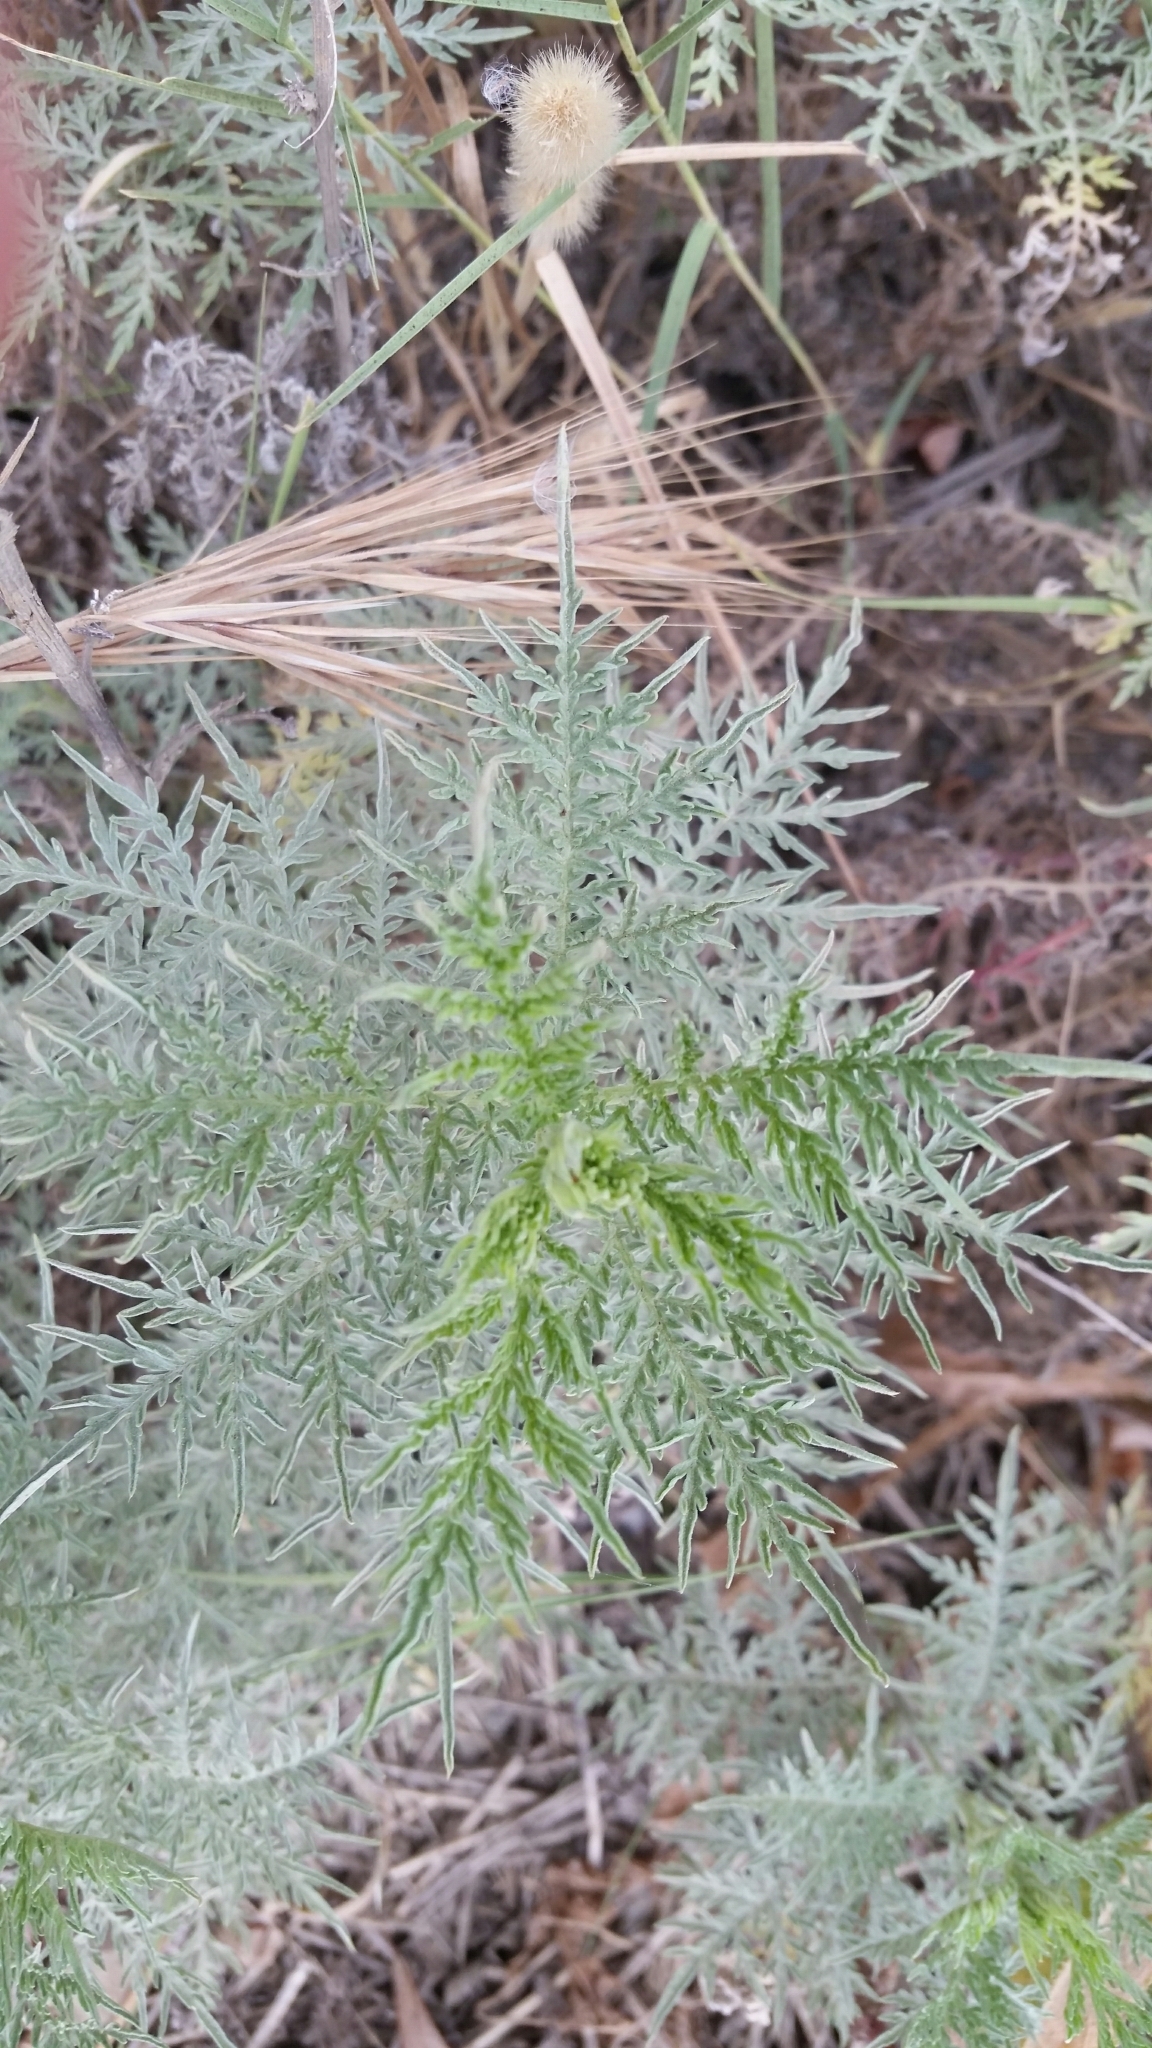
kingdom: Plantae
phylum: Tracheophyta
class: Magnoliopsida
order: Asterales
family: Asteraceae
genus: Ambrosia
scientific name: Ambrosia confertiflora
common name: Bur ragweed
